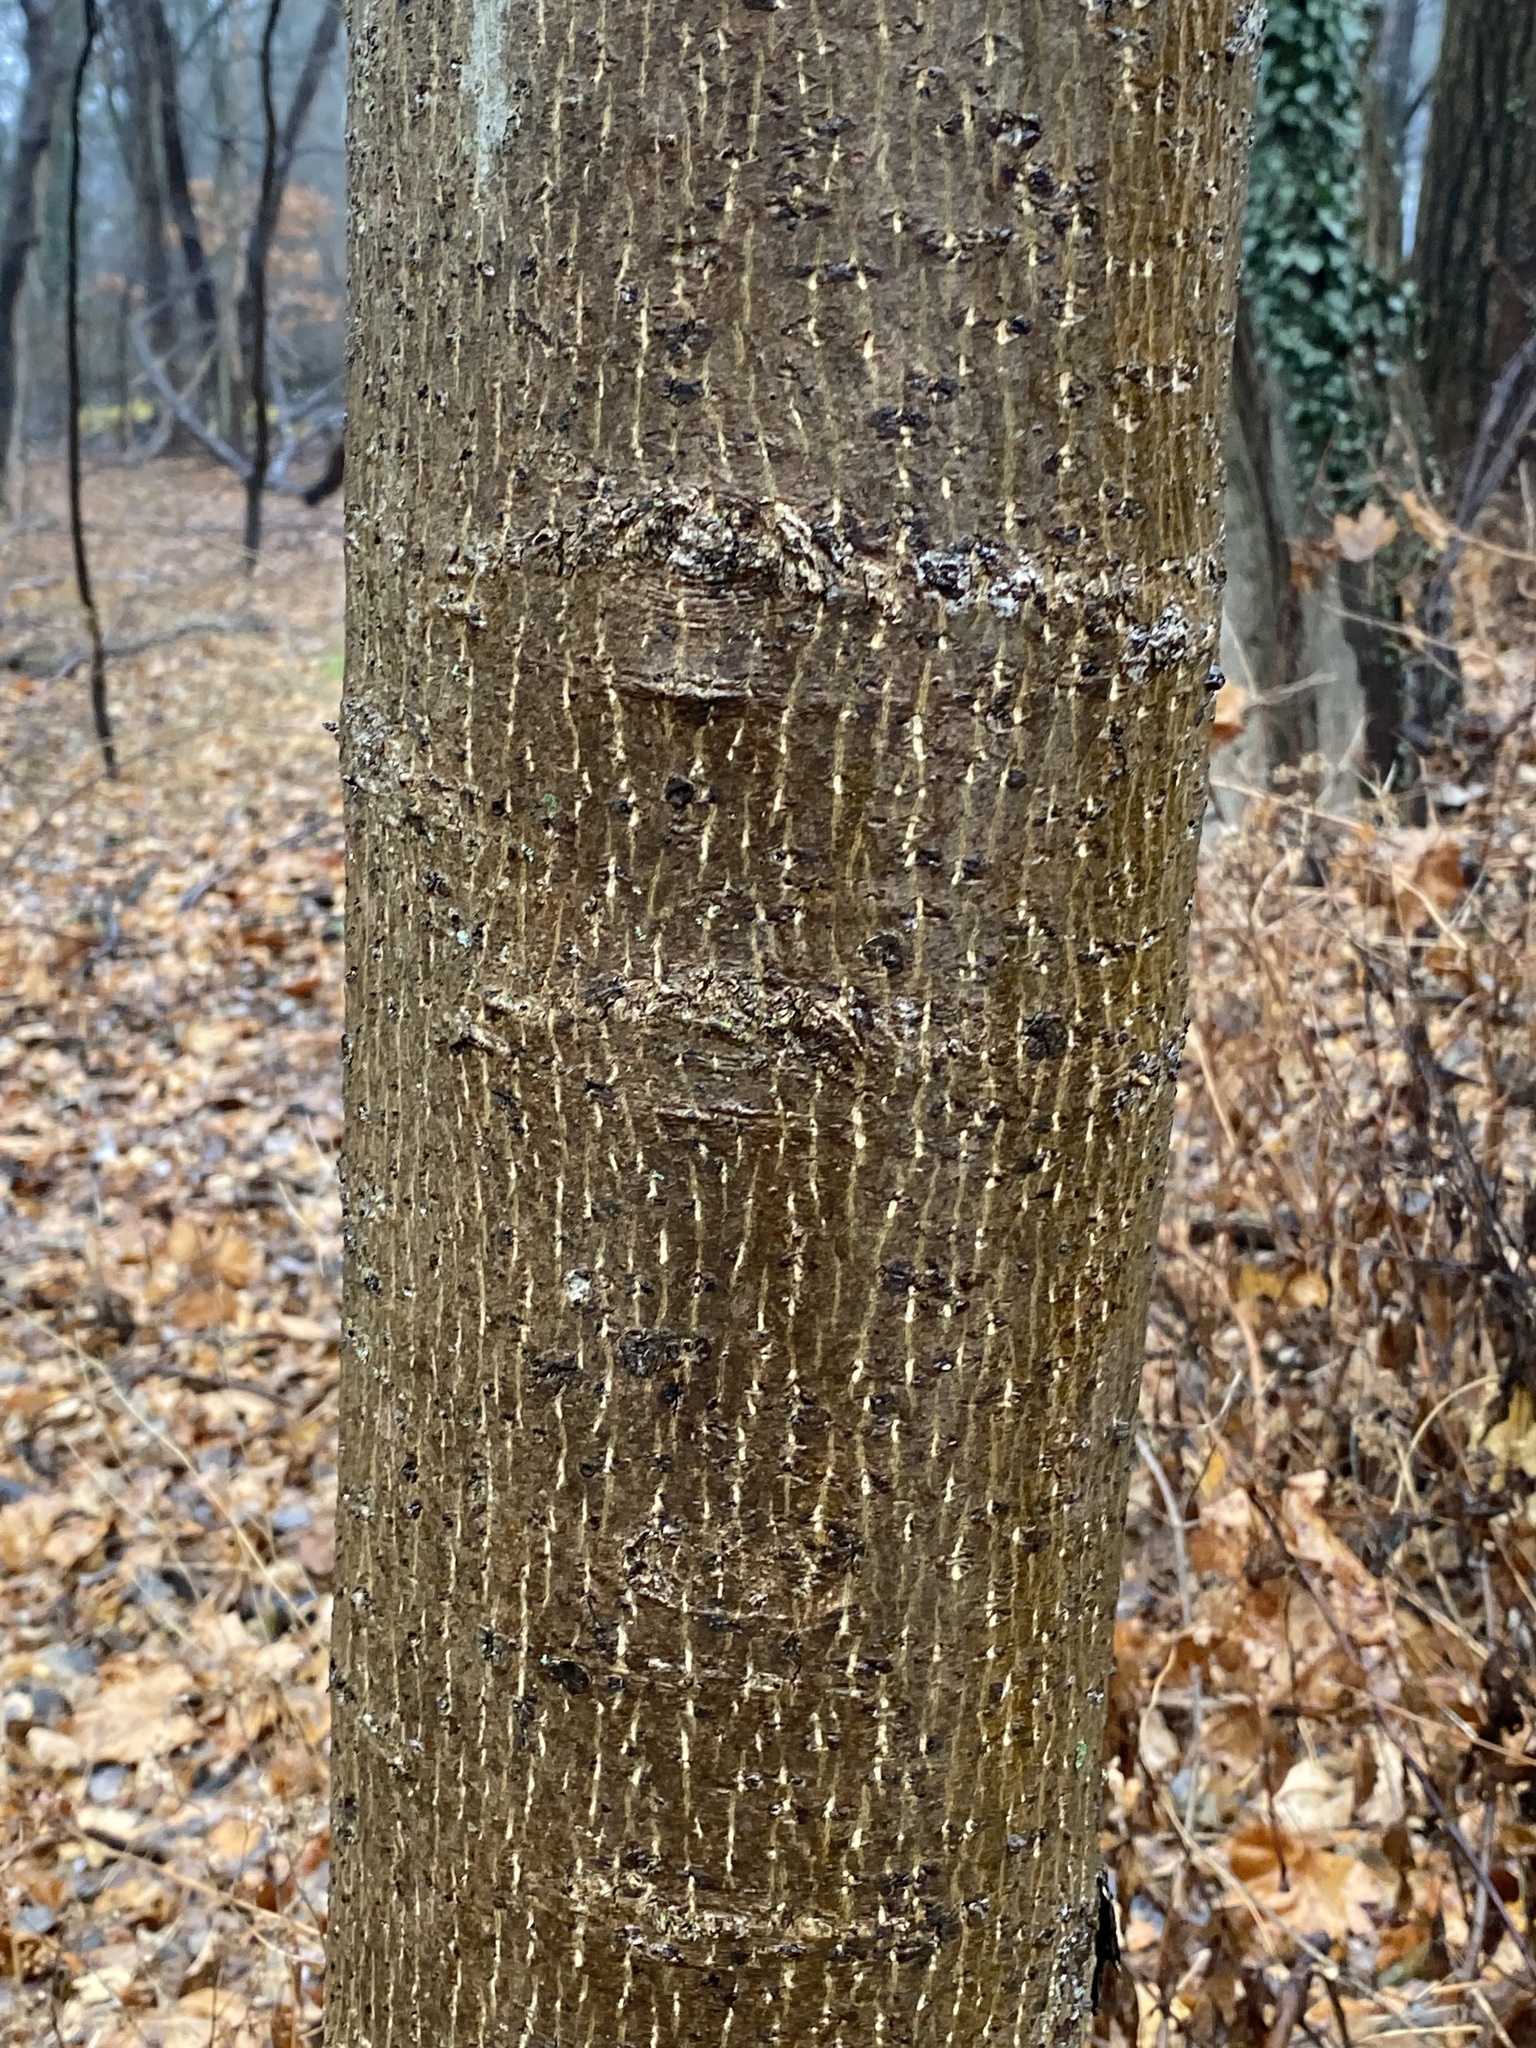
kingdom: Plantae
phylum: Tracheophyta
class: Magnoliopsida
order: Magnoliales
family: Magnoliaceae
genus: Liriodendron
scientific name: Liriodendron tulipifera
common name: Tulip tree
